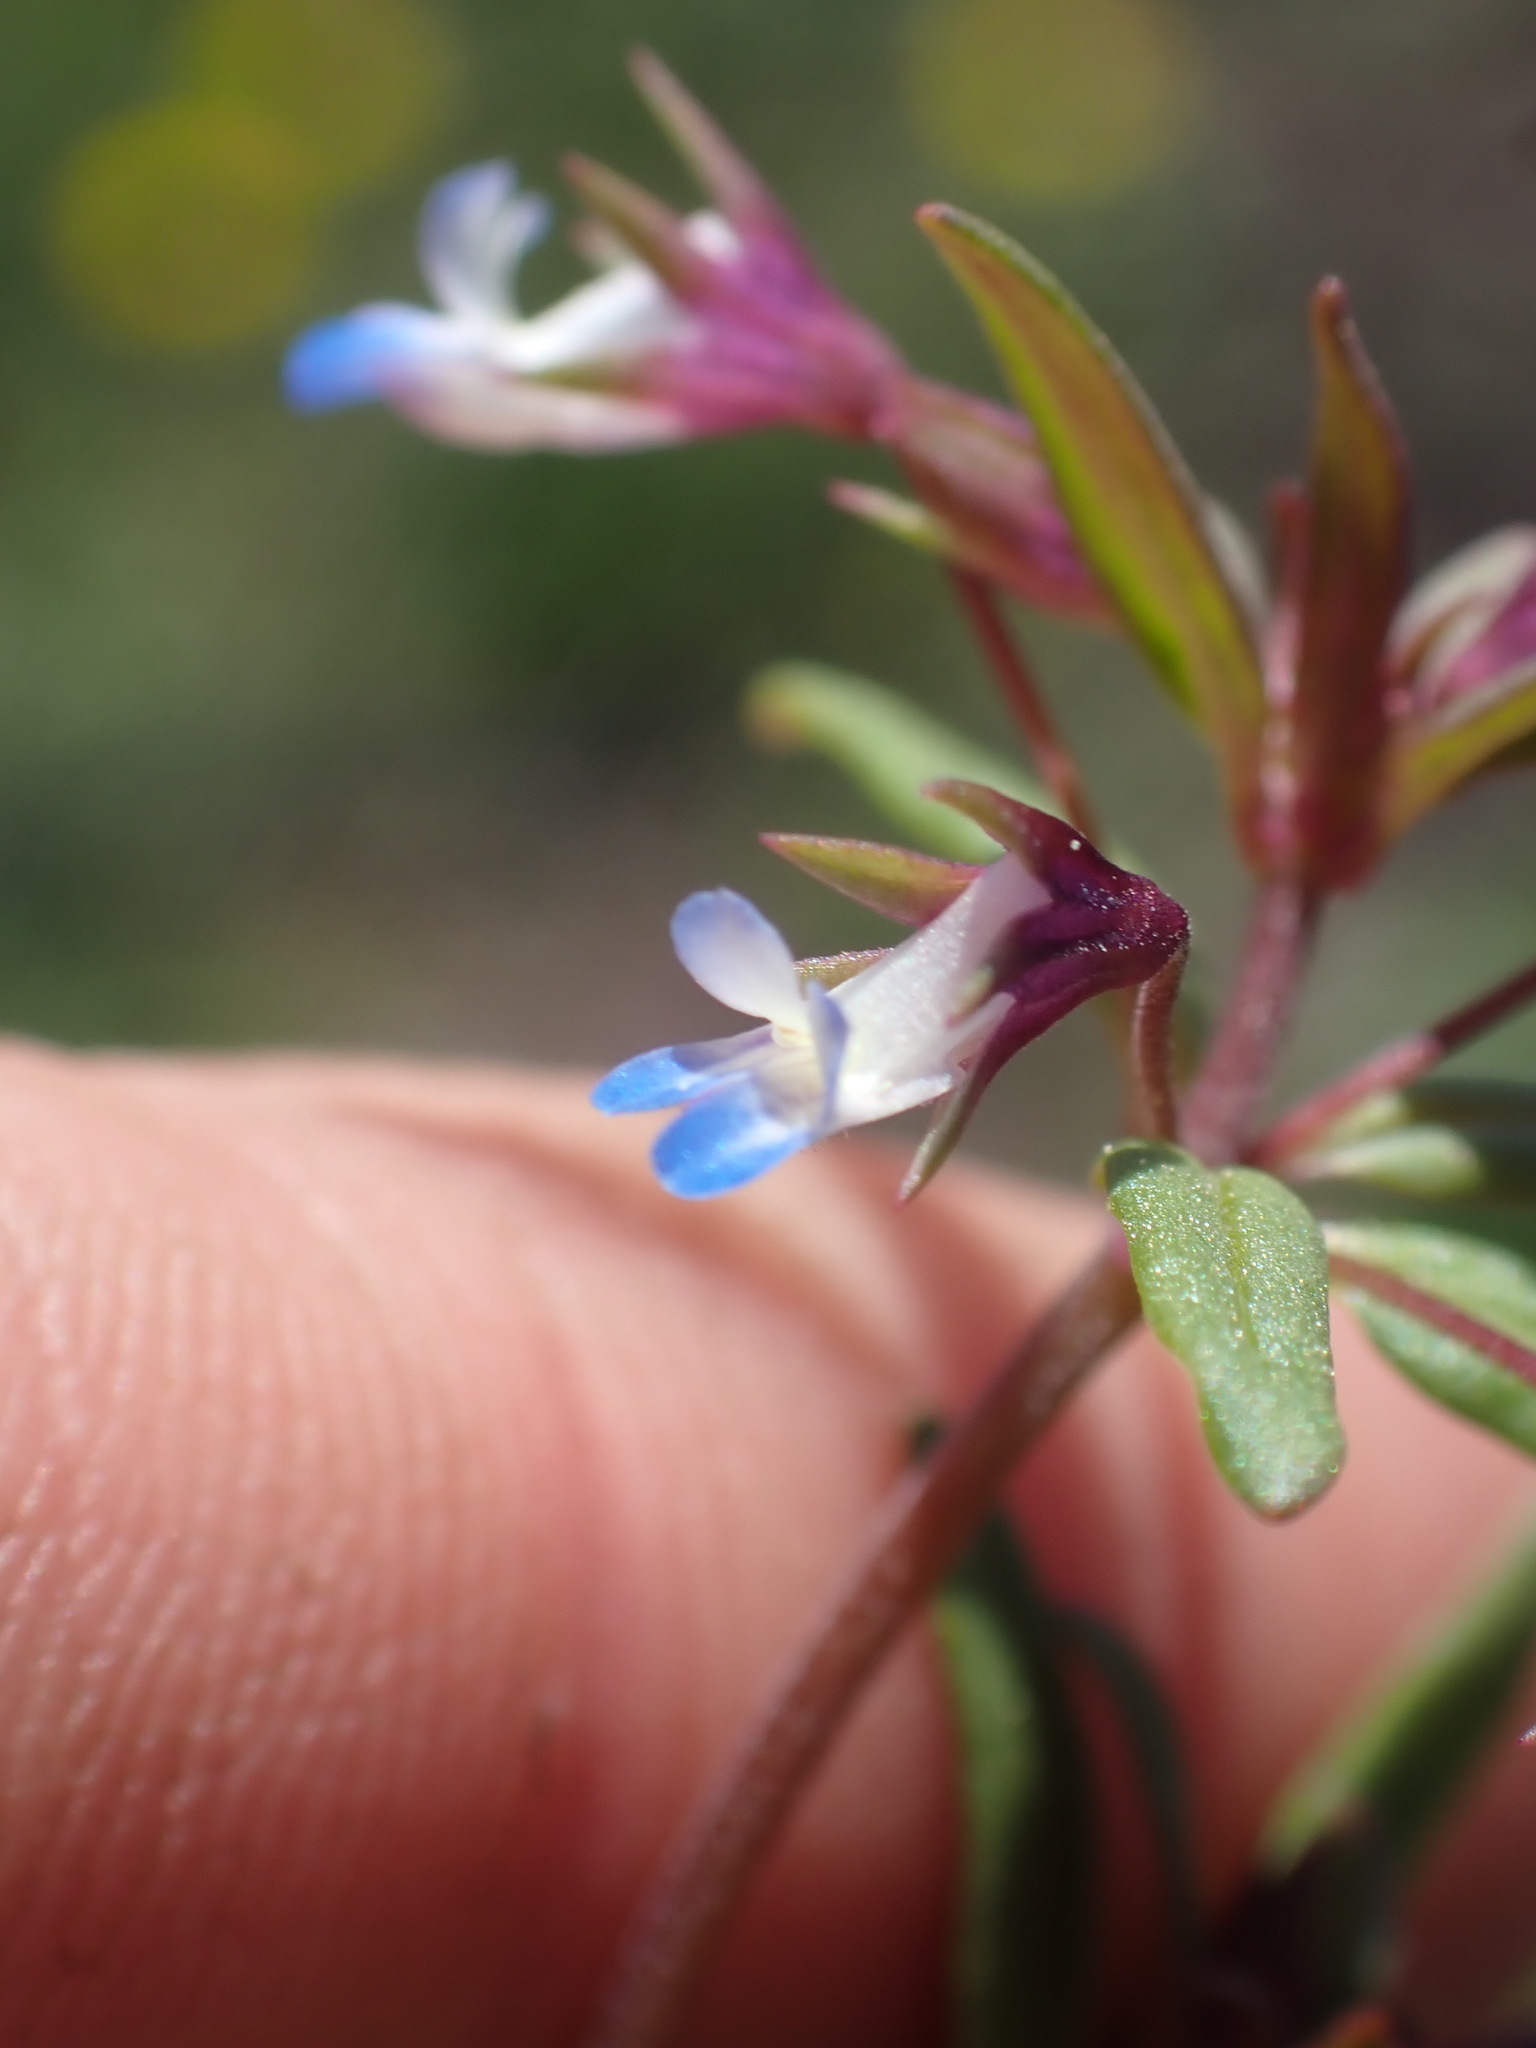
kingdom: Plantae
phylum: Tracheophyta
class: Magnoliopsida
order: Lamiales
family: Plantaginaceae
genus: Collinsia
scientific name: Collinsia parviflora
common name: Blue-lips
